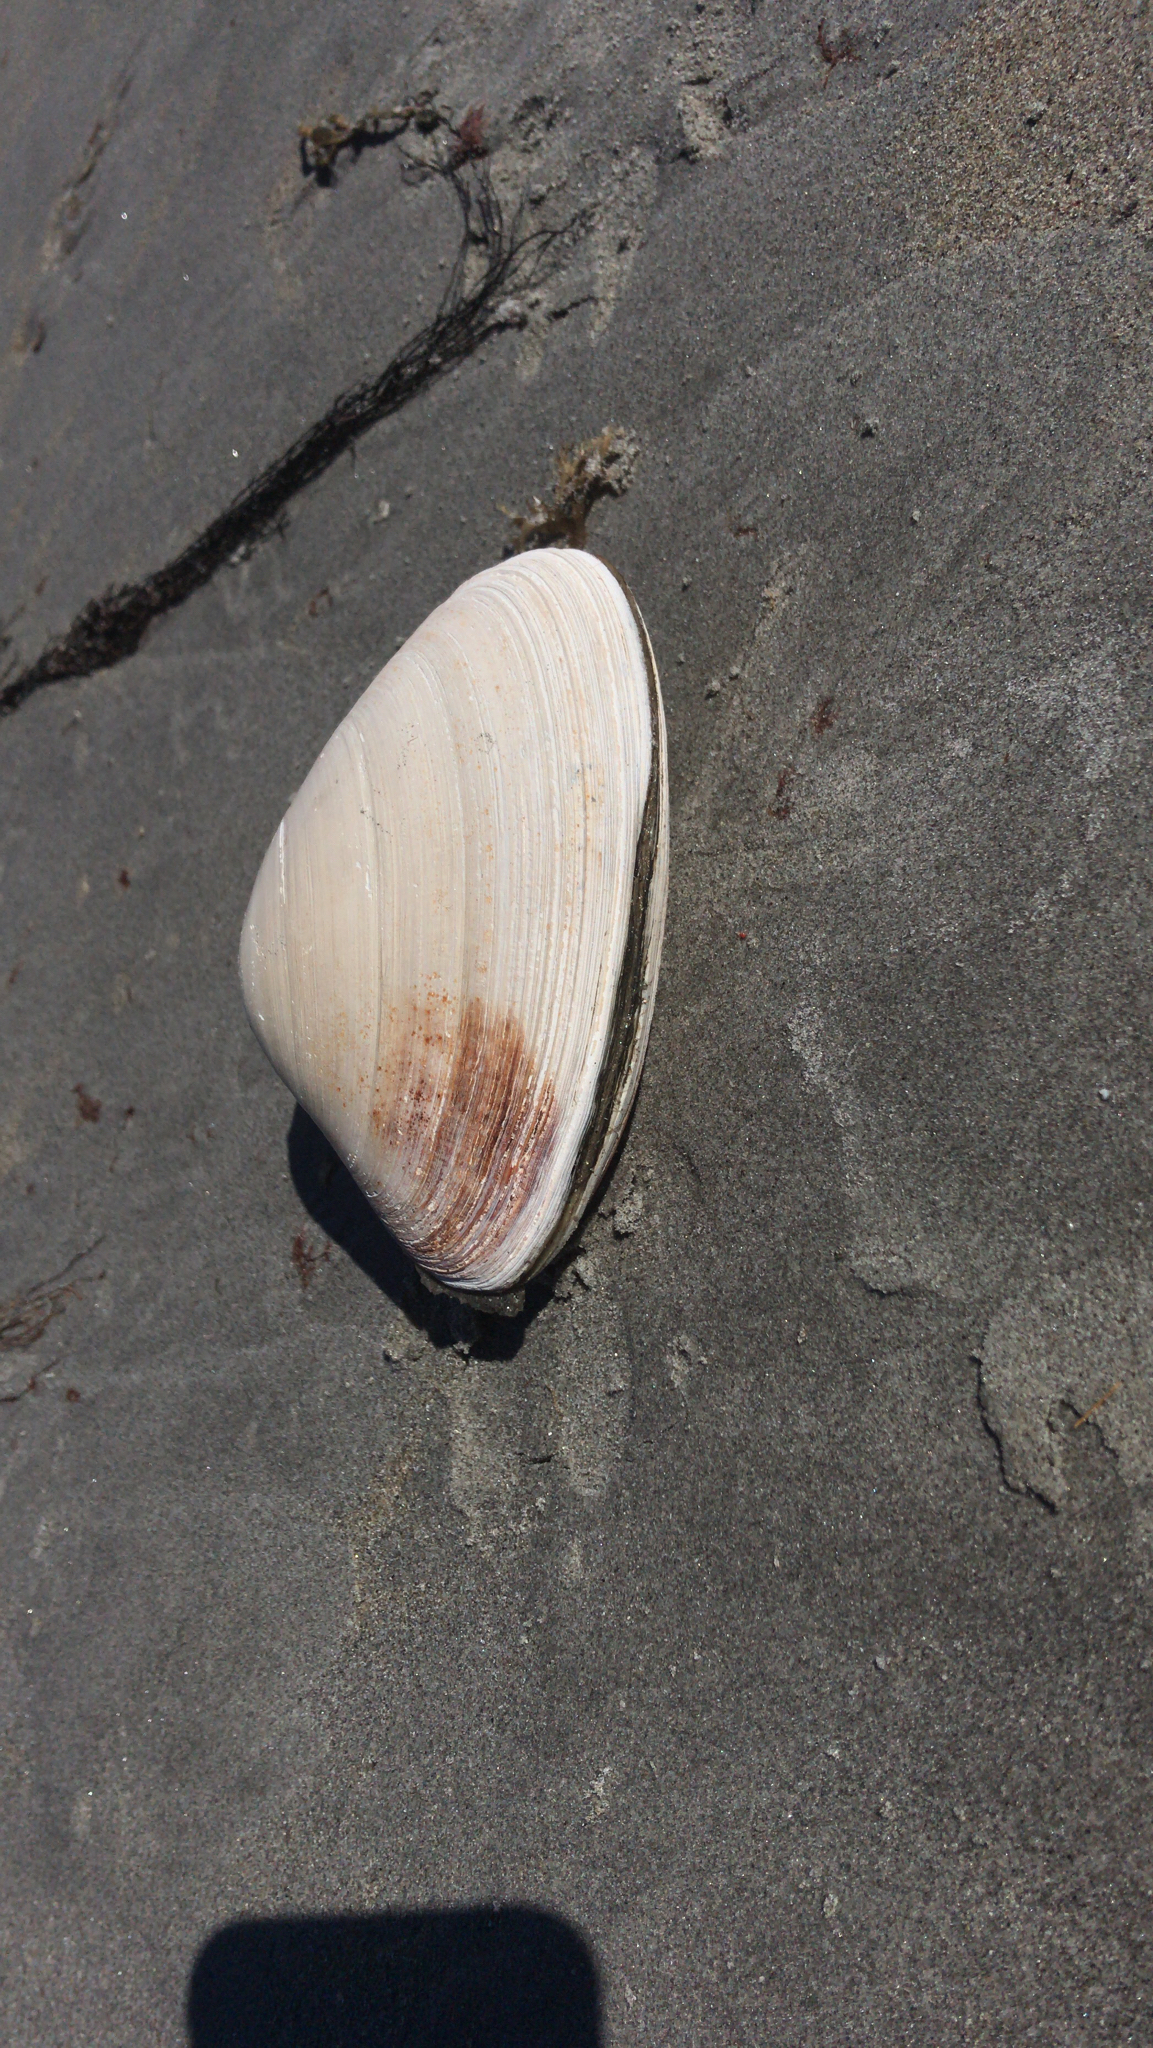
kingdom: Animalia
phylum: Mollusca
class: Bivalvia
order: Venerida
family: Mactridae
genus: Spisula
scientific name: Spisula solidissima
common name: Atlantic surf clam
